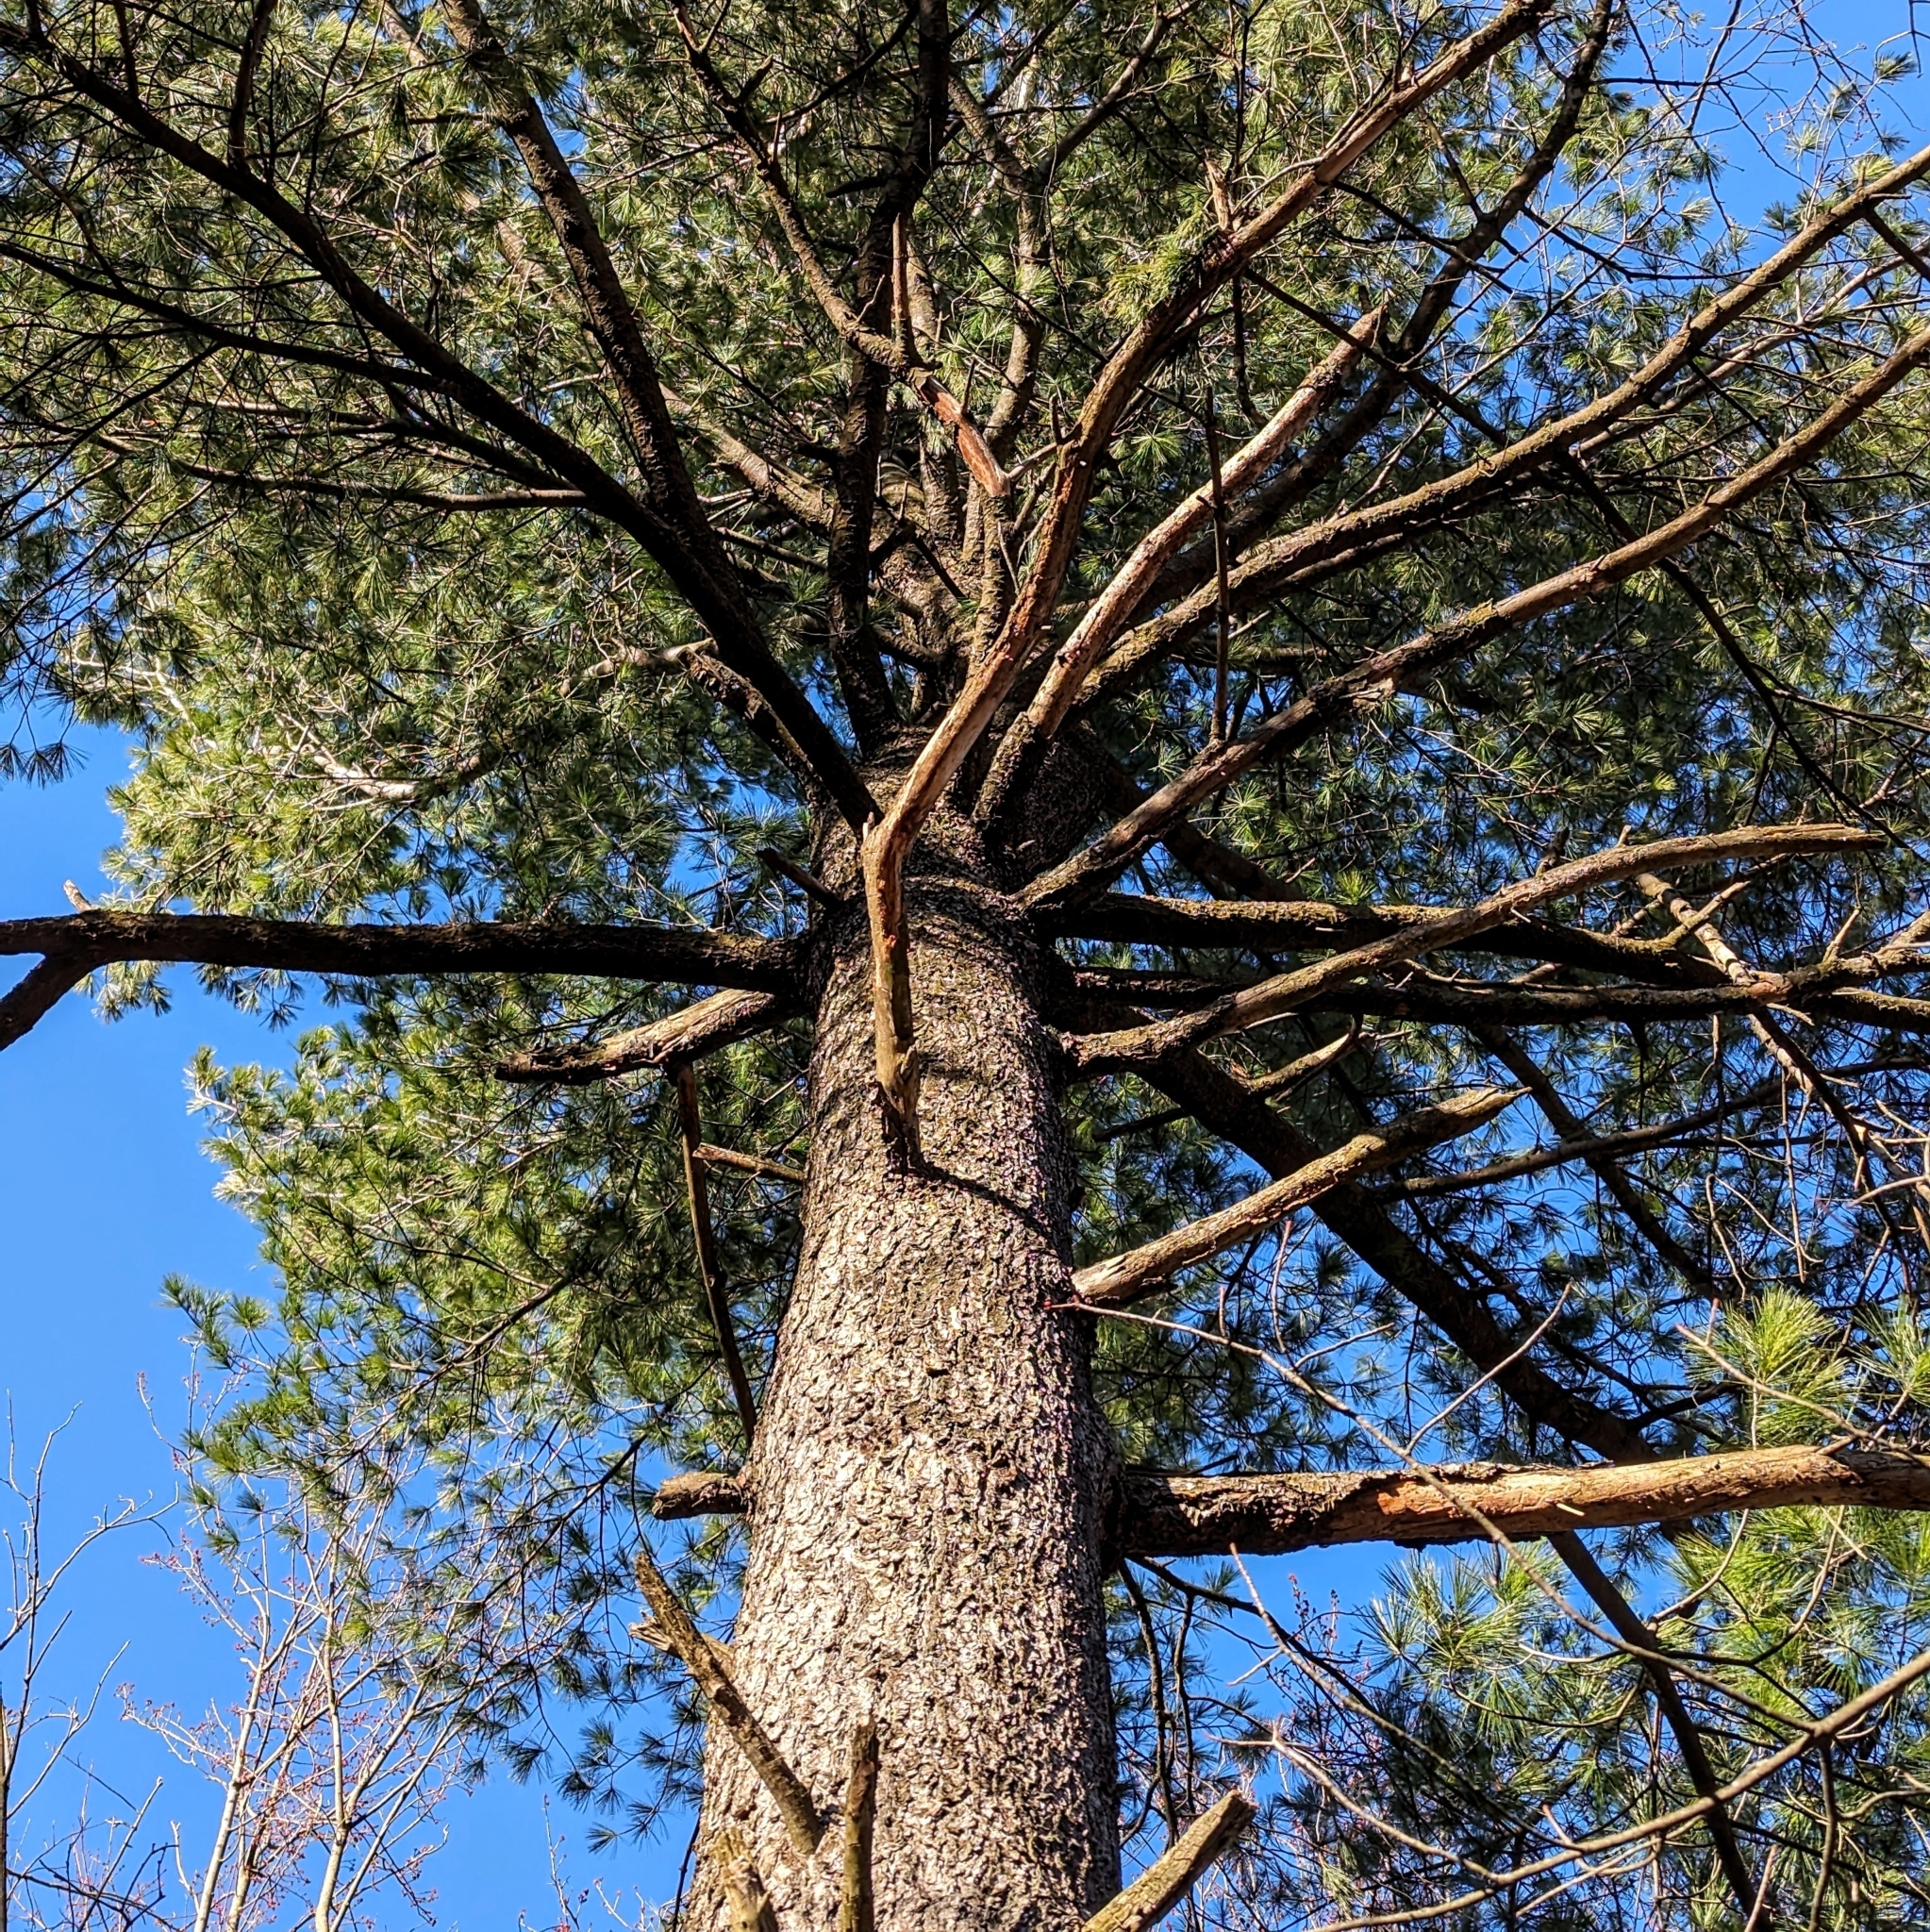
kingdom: Plantae
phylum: Tracheophyta
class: Pinopsida
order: Pinales
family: Pinaceae
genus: Pinus
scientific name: Pinus strobus
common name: Weymouth pine
